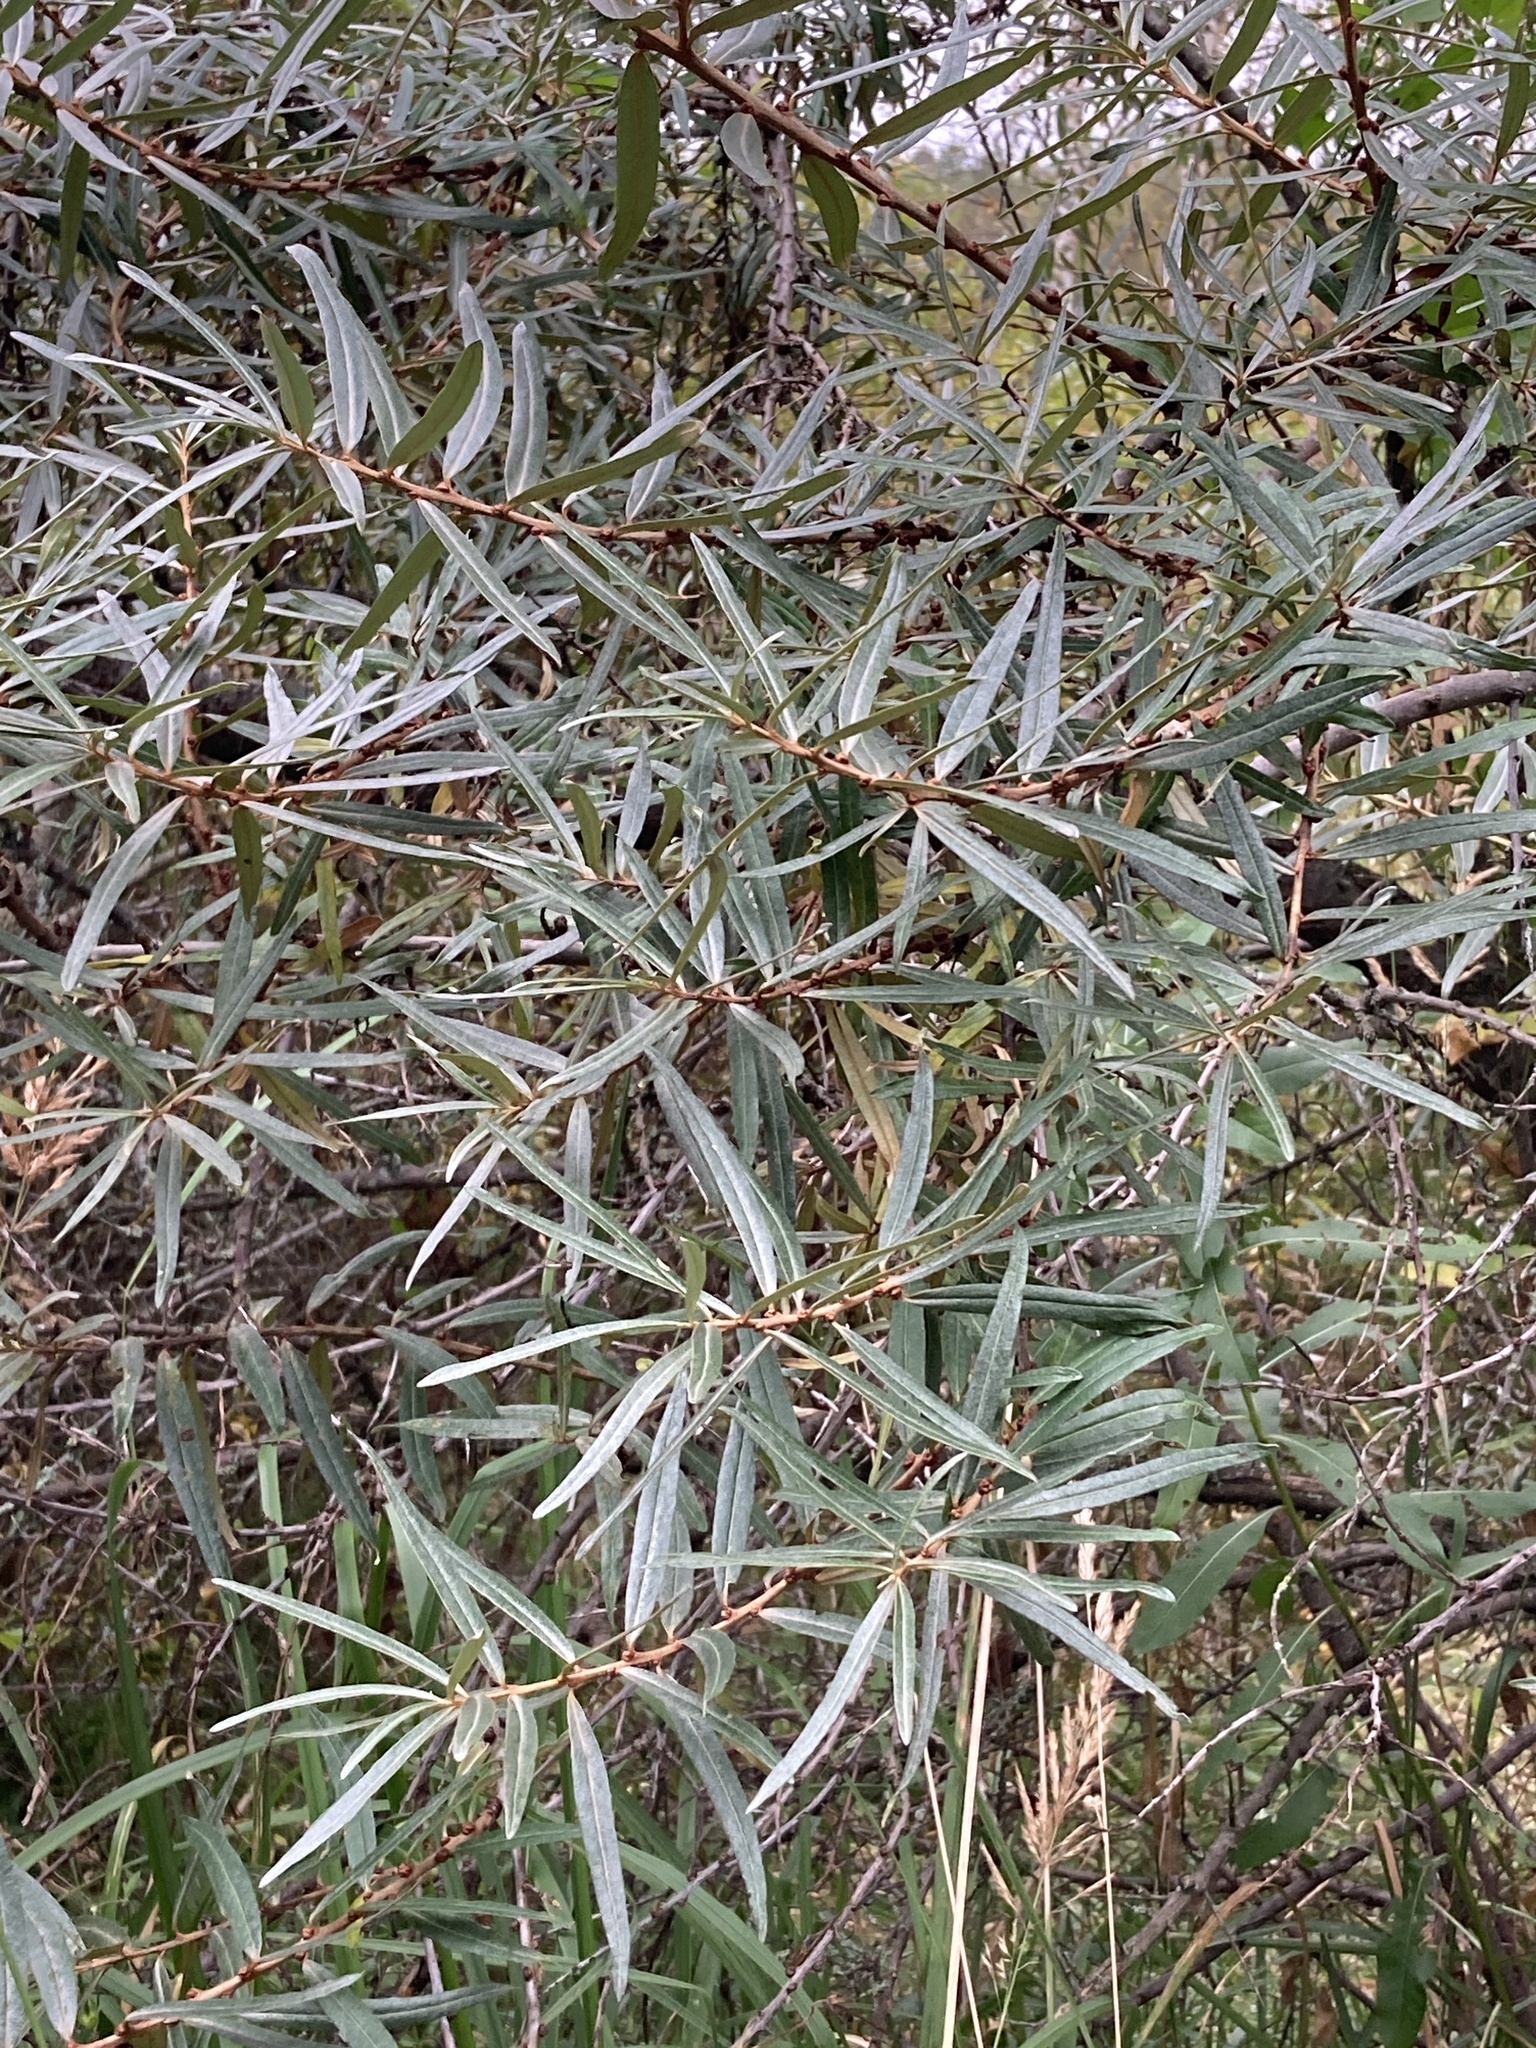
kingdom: Plantae
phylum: Tracheophyta
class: Magnoliopsida
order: Malpighiales
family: Salicaceae
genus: Salix
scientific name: Salix viminalis
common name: Osier
